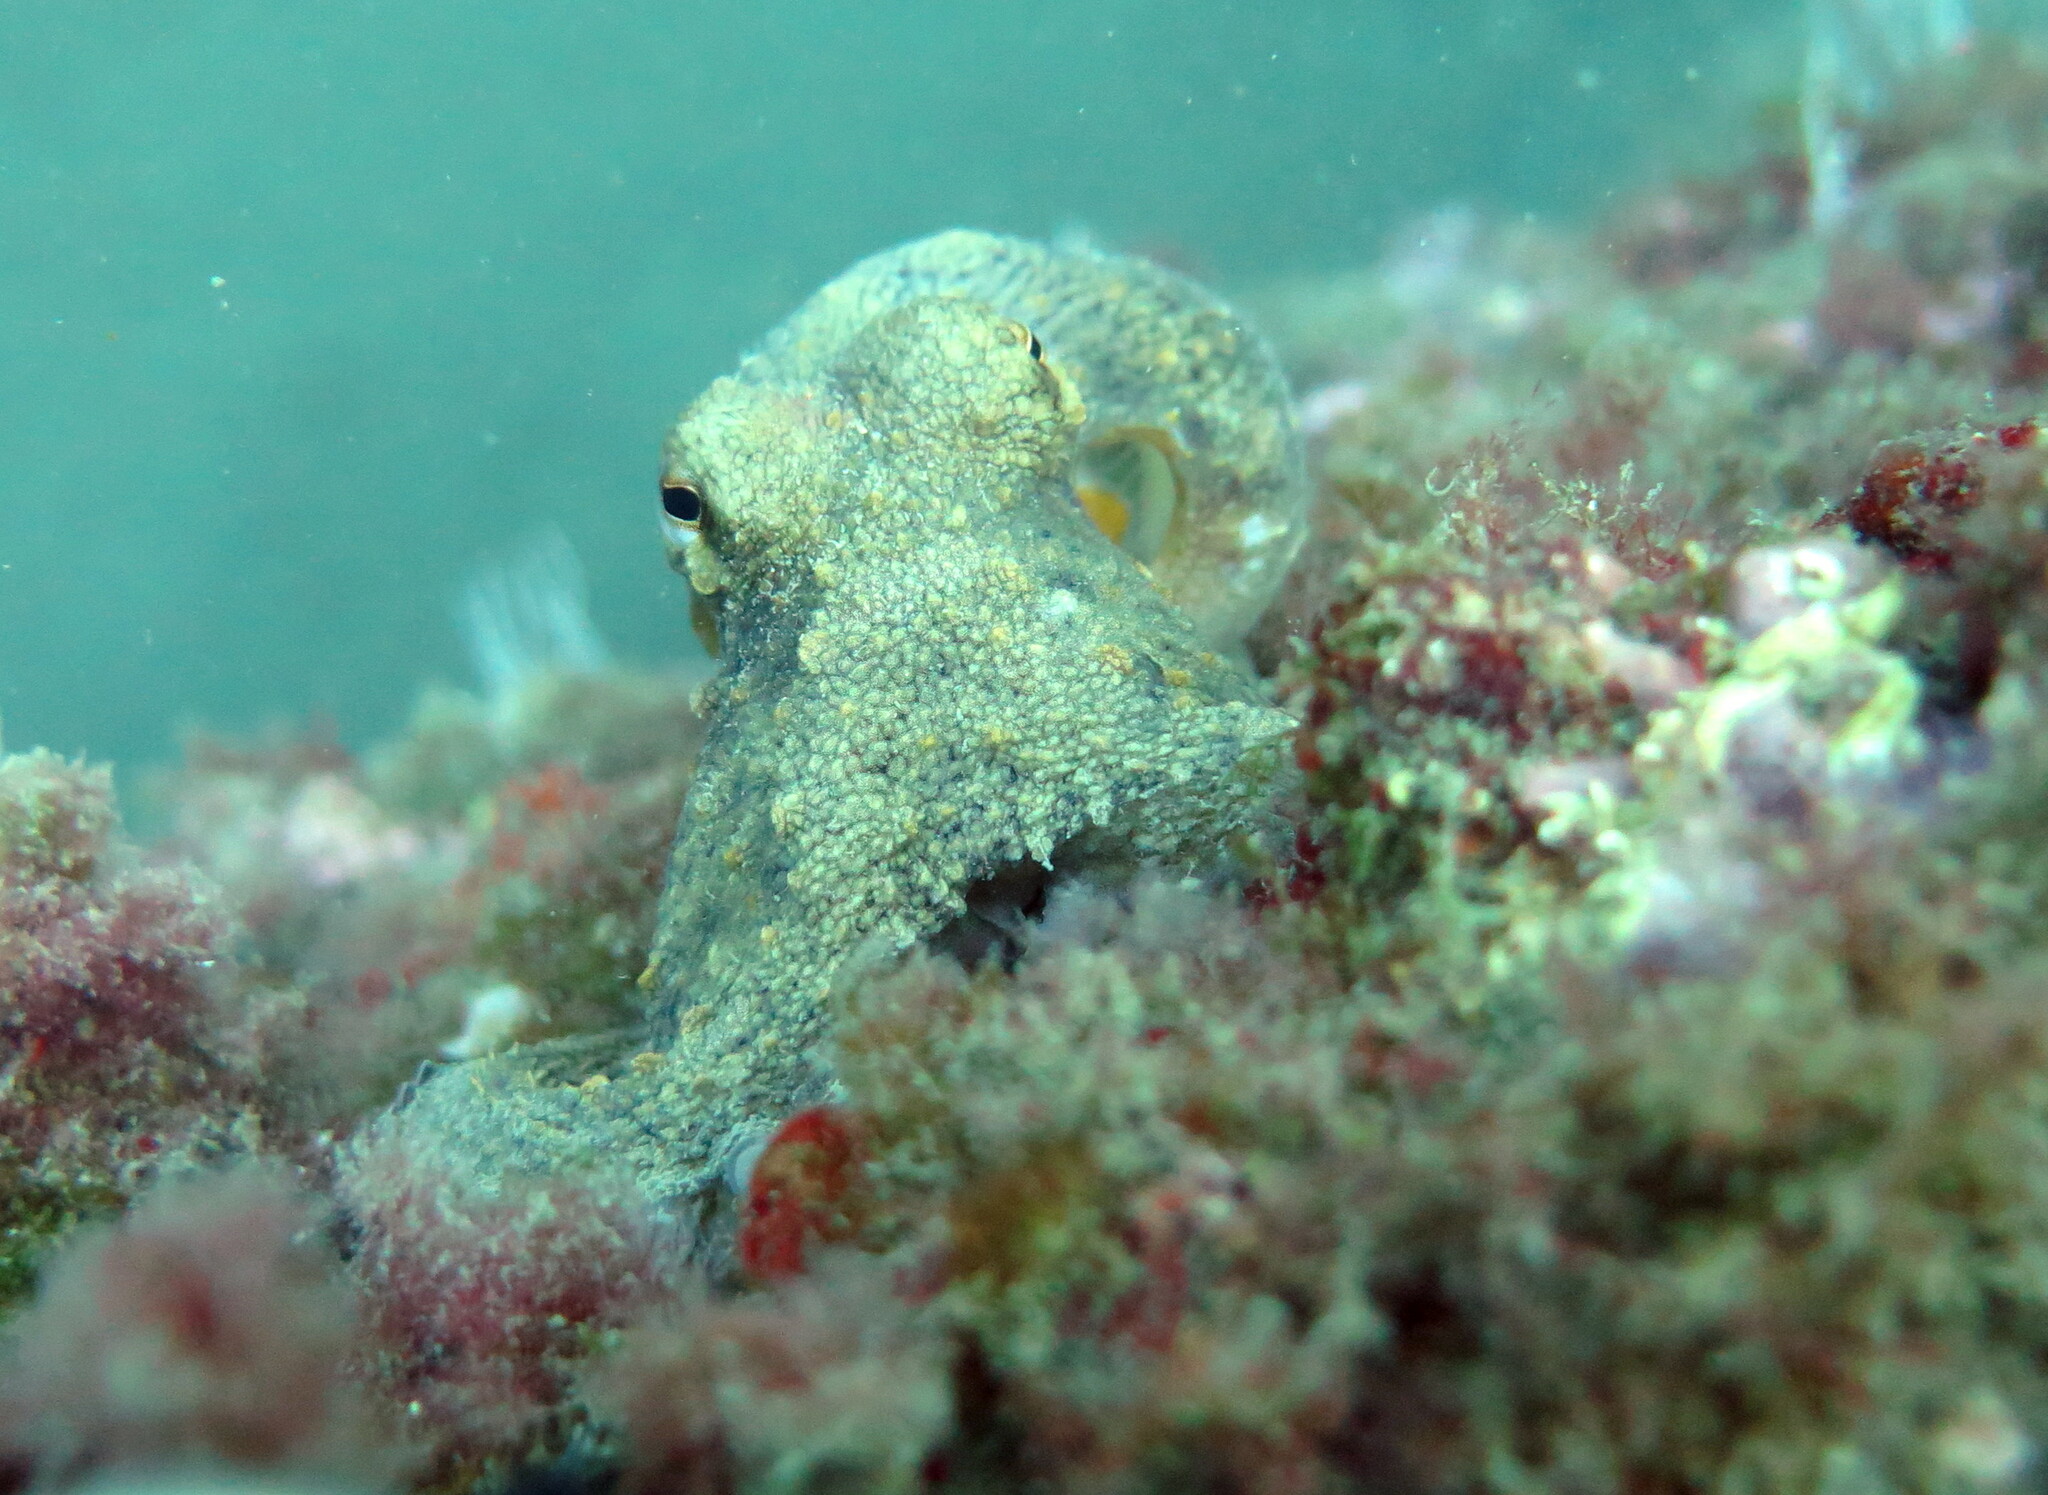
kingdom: Animalia
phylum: Mollusca
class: Cephalopoda
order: Octopoda
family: Octopodidae
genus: Octopus
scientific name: Octopus vulgaris
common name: Common octopus
